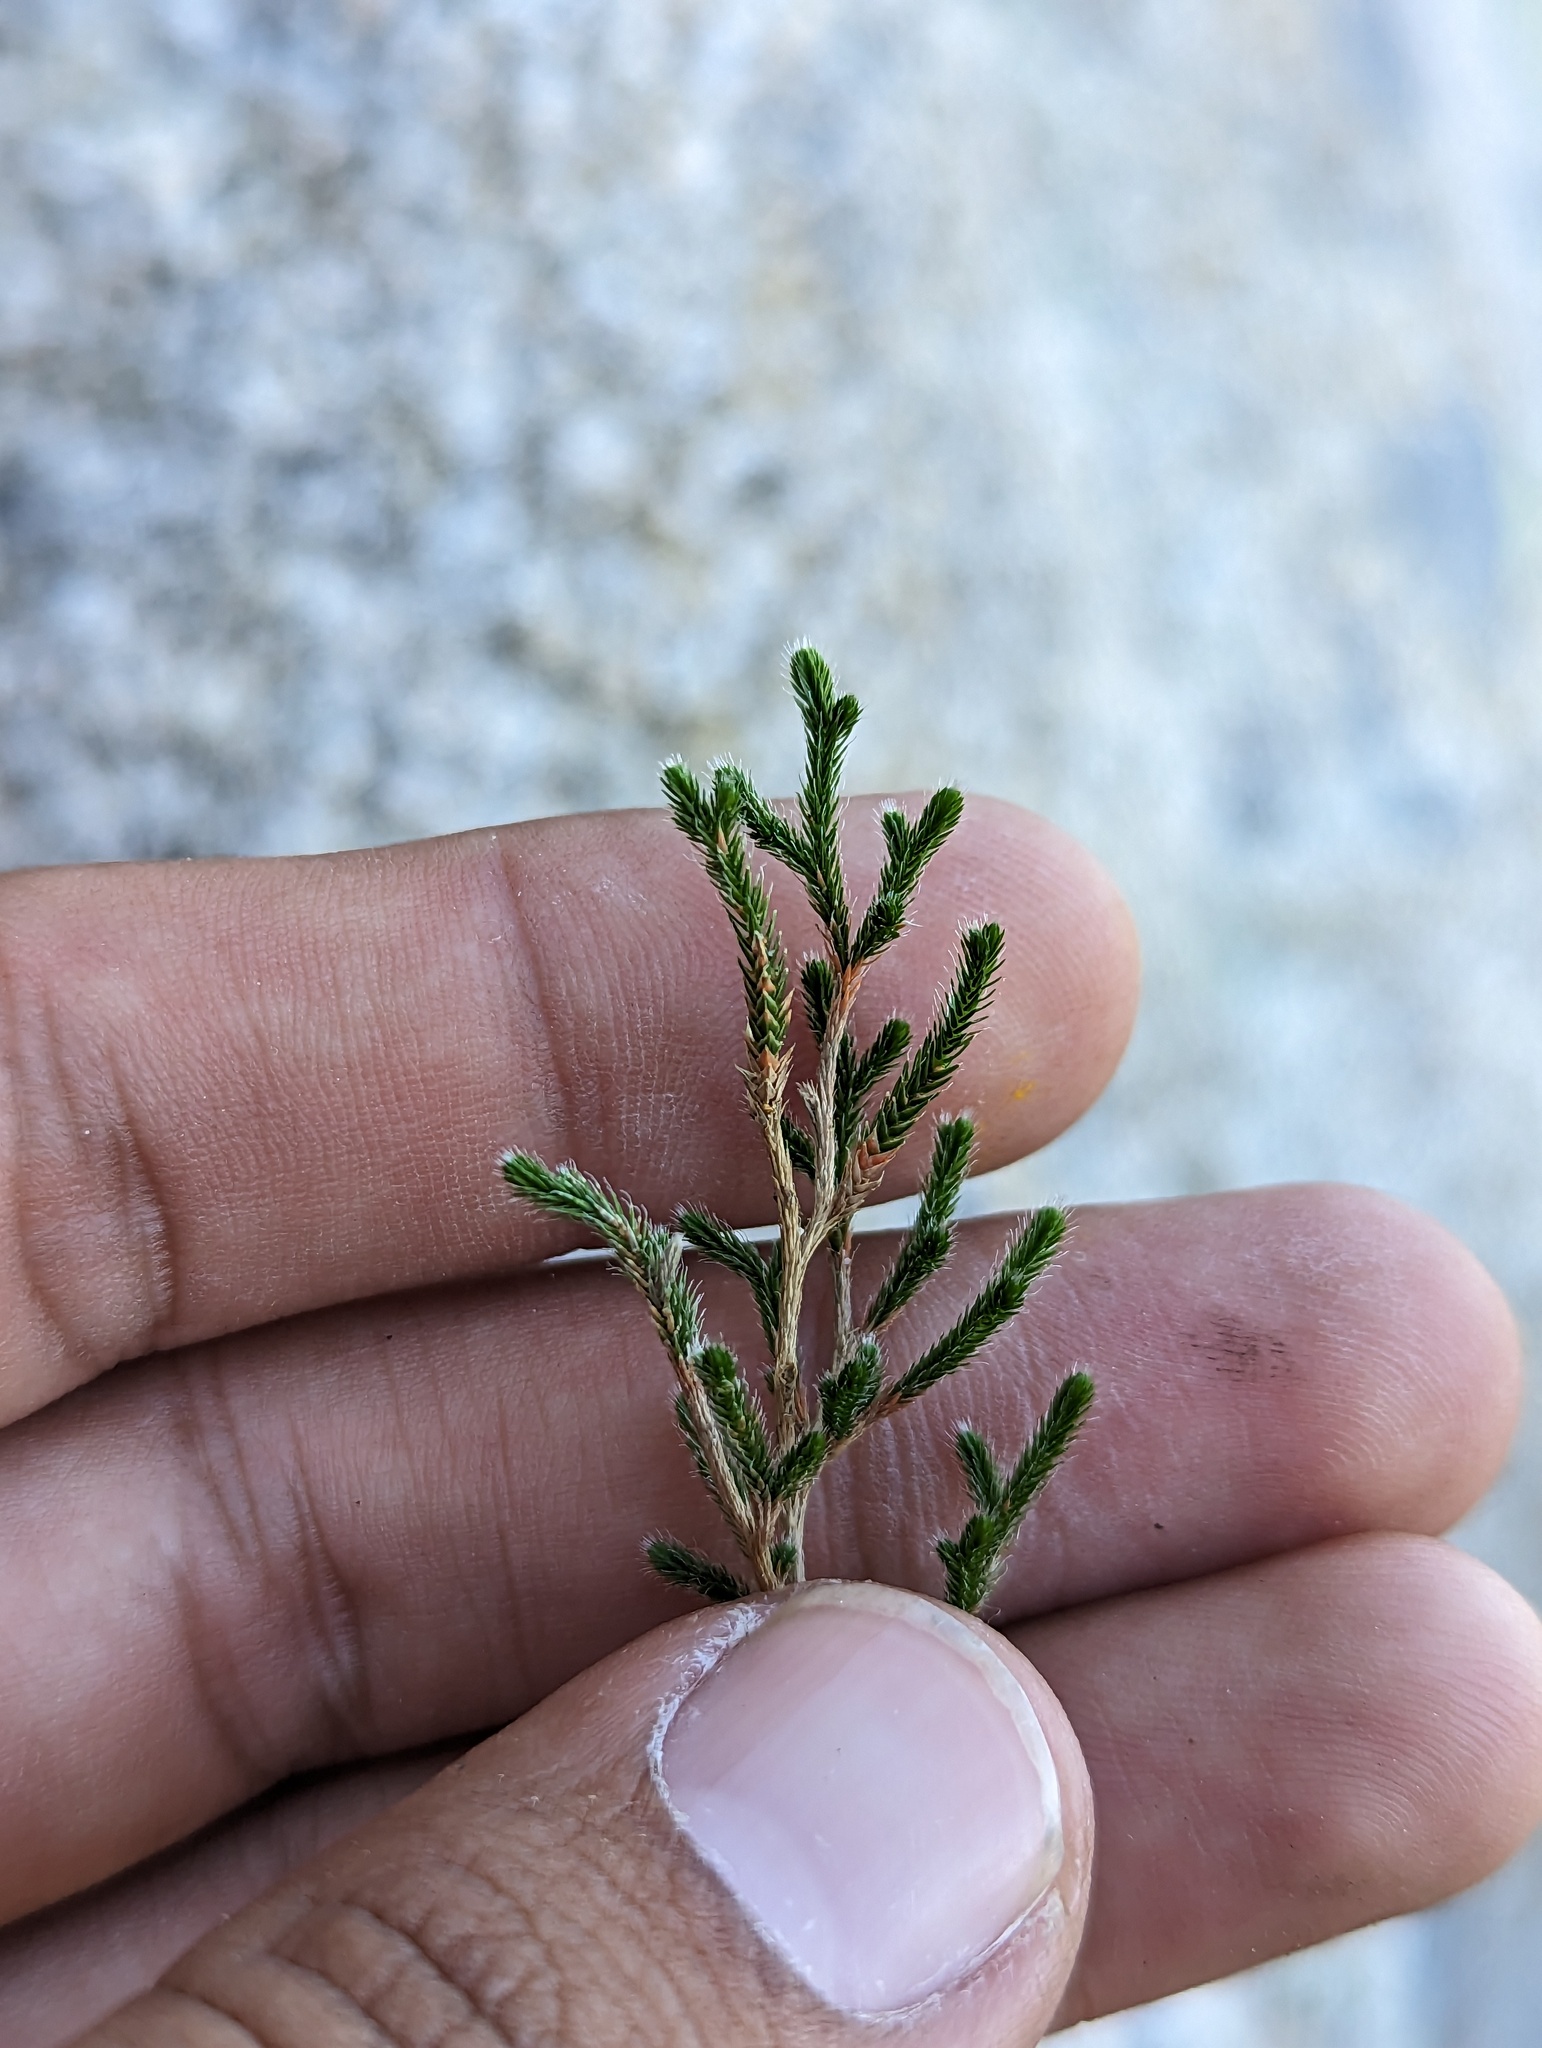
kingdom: Plantae
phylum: Tracheophyta
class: Lycopodiopsida
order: Selaginellales
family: Selaginellaceae
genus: Selaginella
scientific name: Selaginella bigelovii
